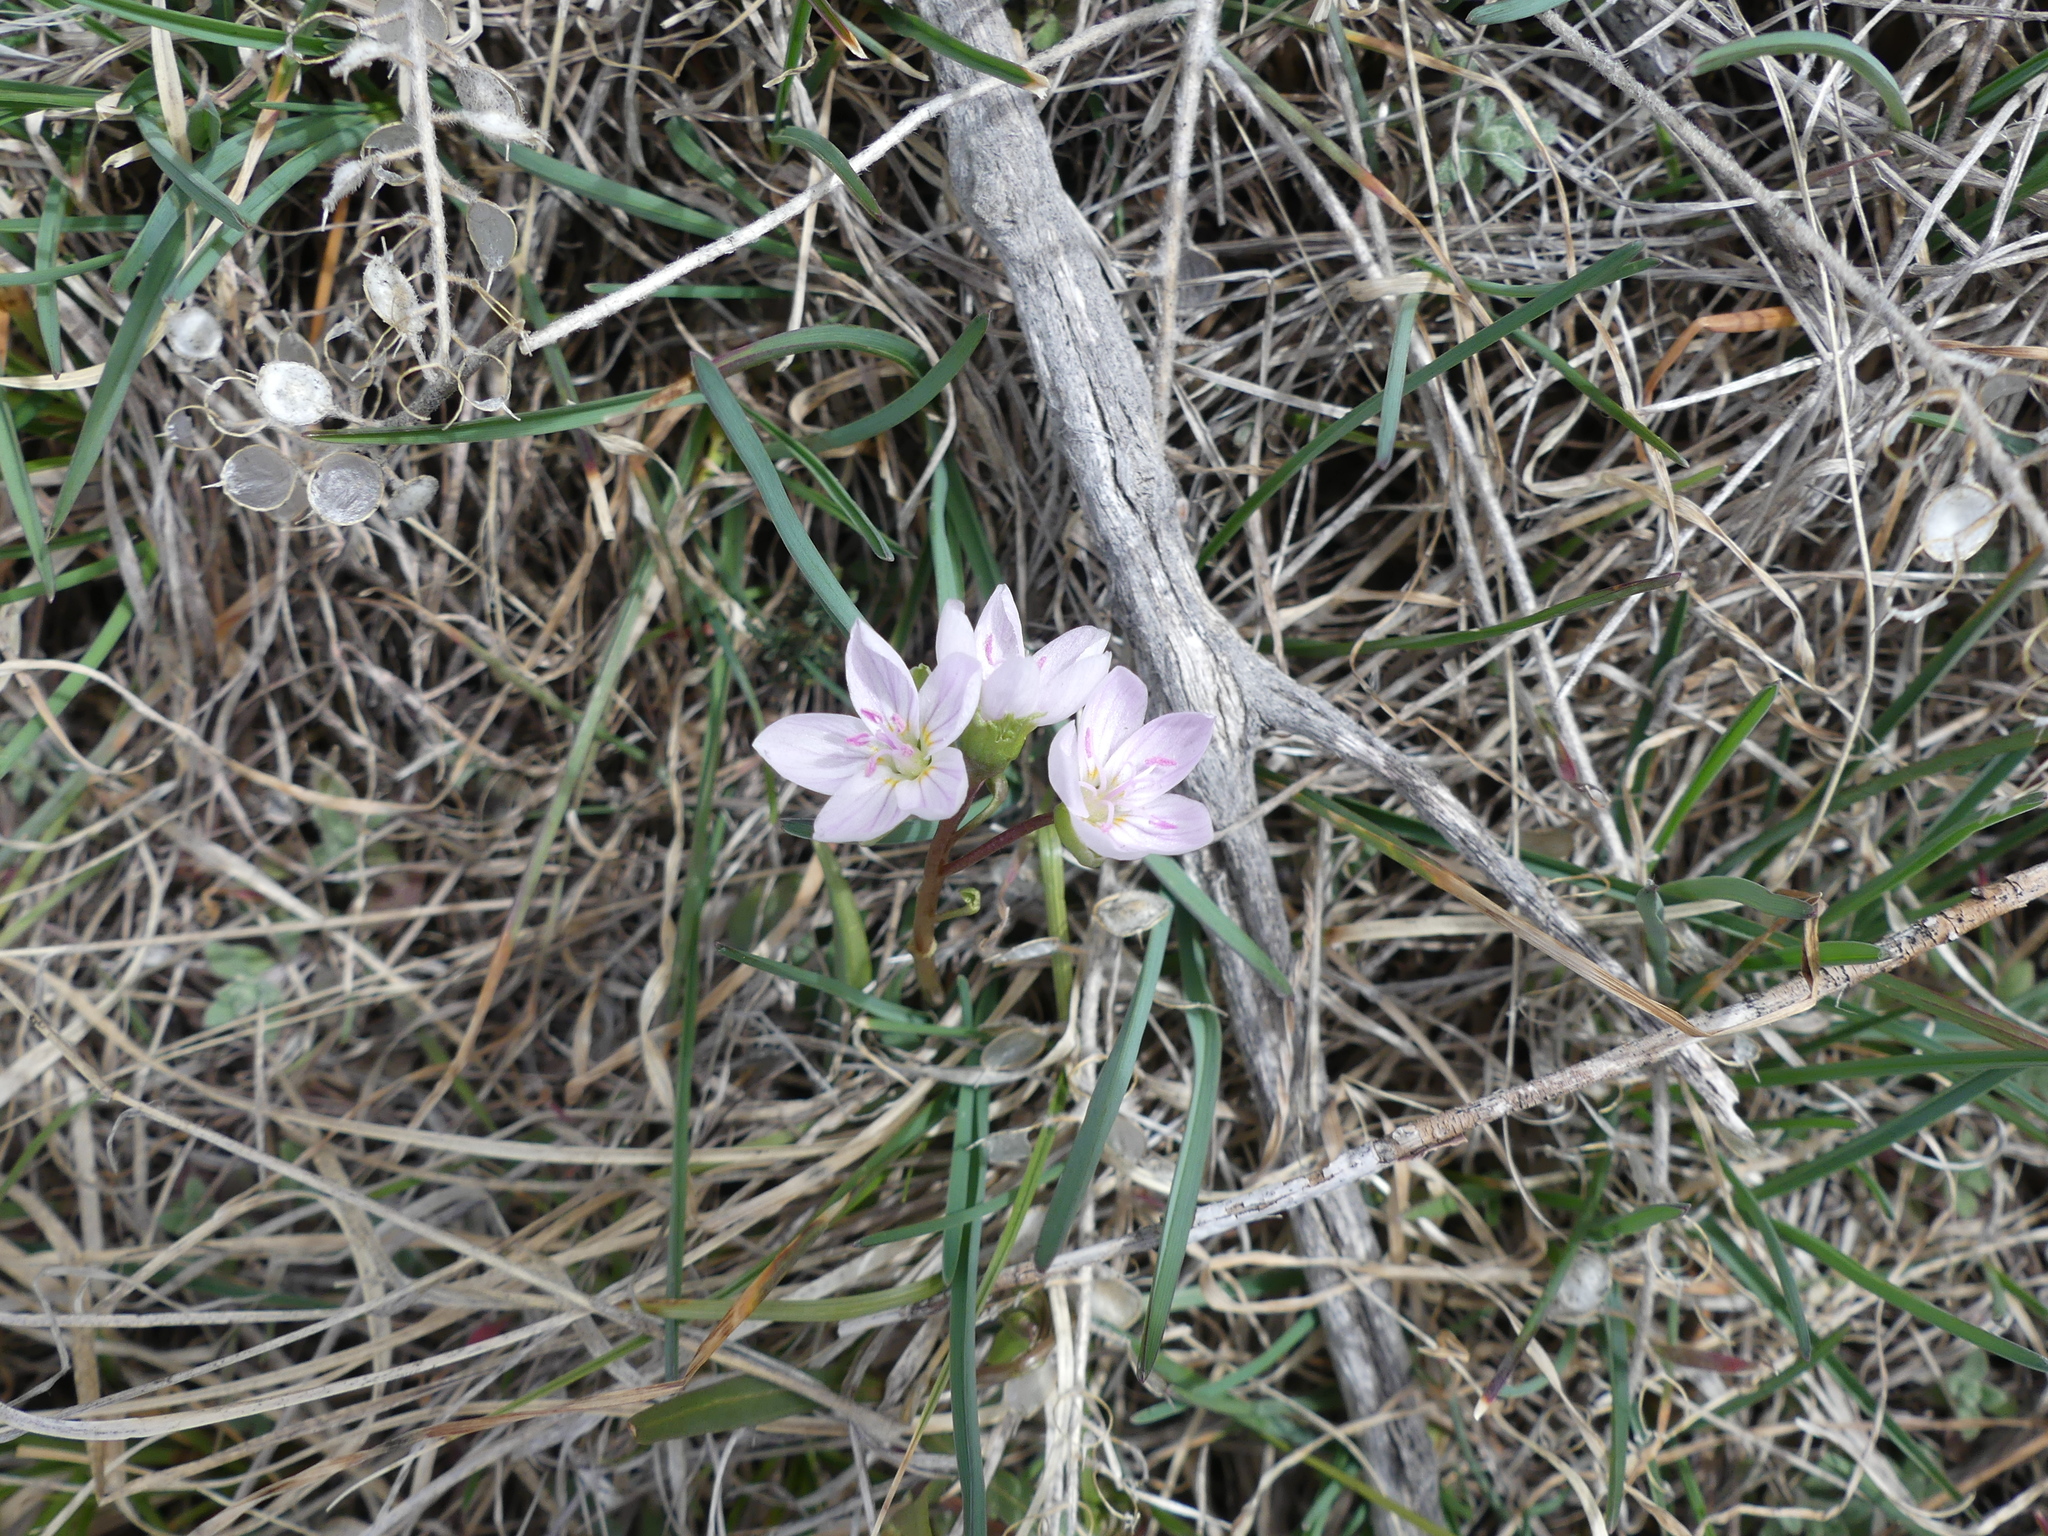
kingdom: Plantae
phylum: Tracheophyta
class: Magnoliopsida
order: Caryophyllales
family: Montiaceae
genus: Claytonia
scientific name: Claytonia rosea
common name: Rocky mountain spring-beauty
